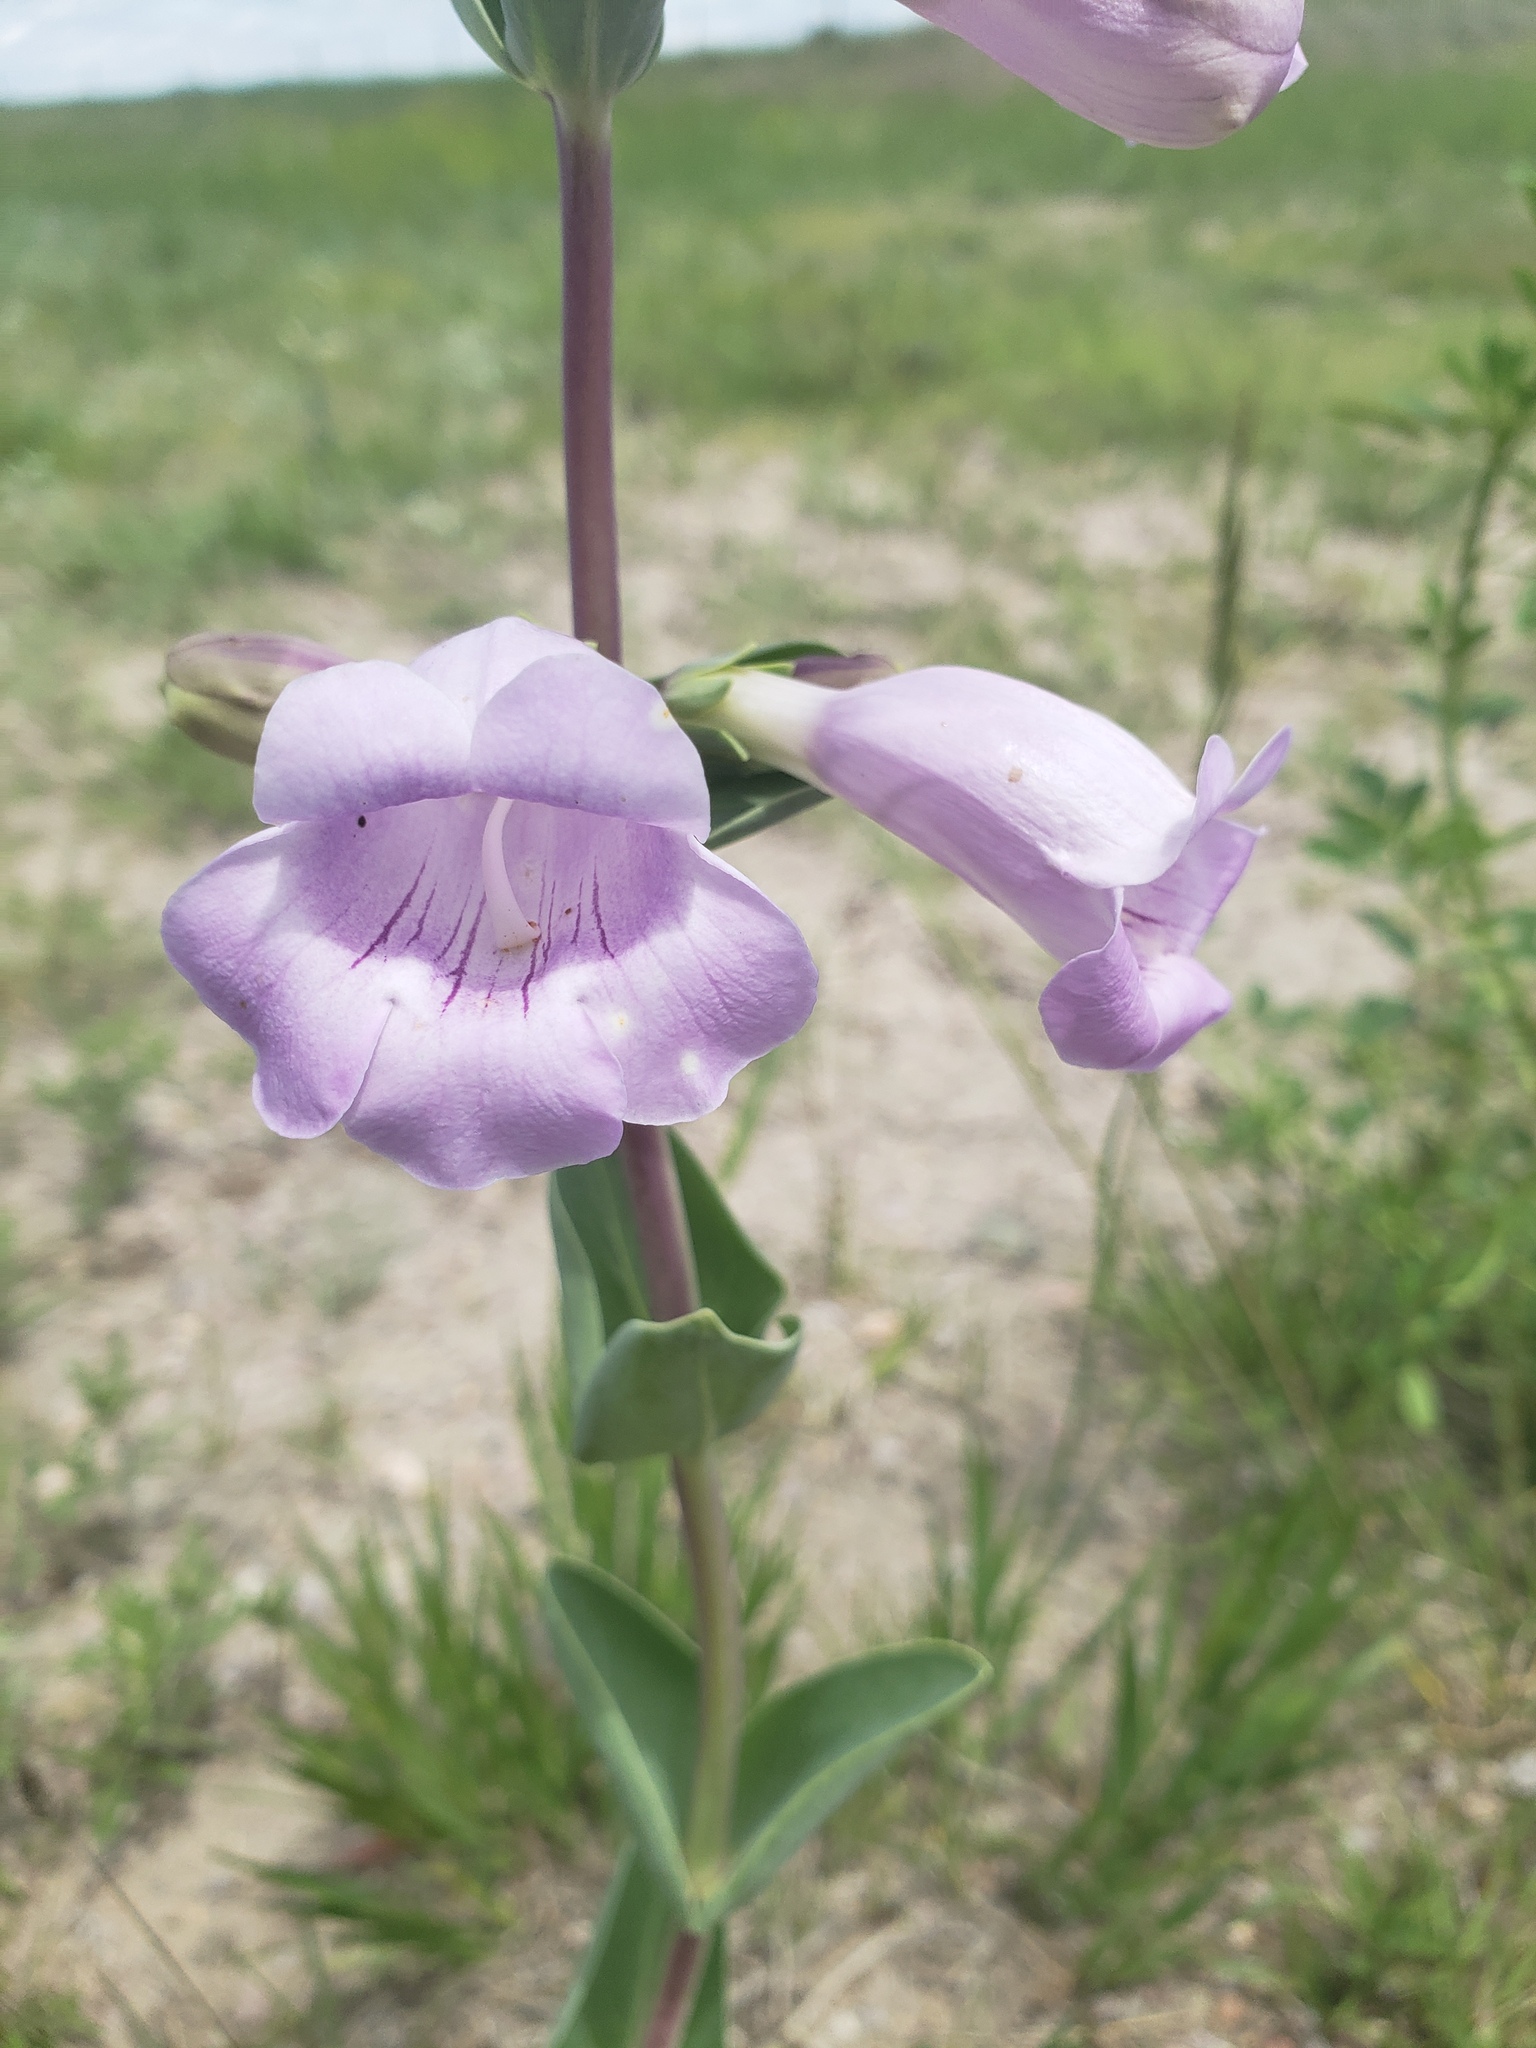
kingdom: Plantae
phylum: Tracheophyta
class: Magnoliopsida
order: Lamiales
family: Plantaginaceae
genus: Penstemon
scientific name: Penstemon
